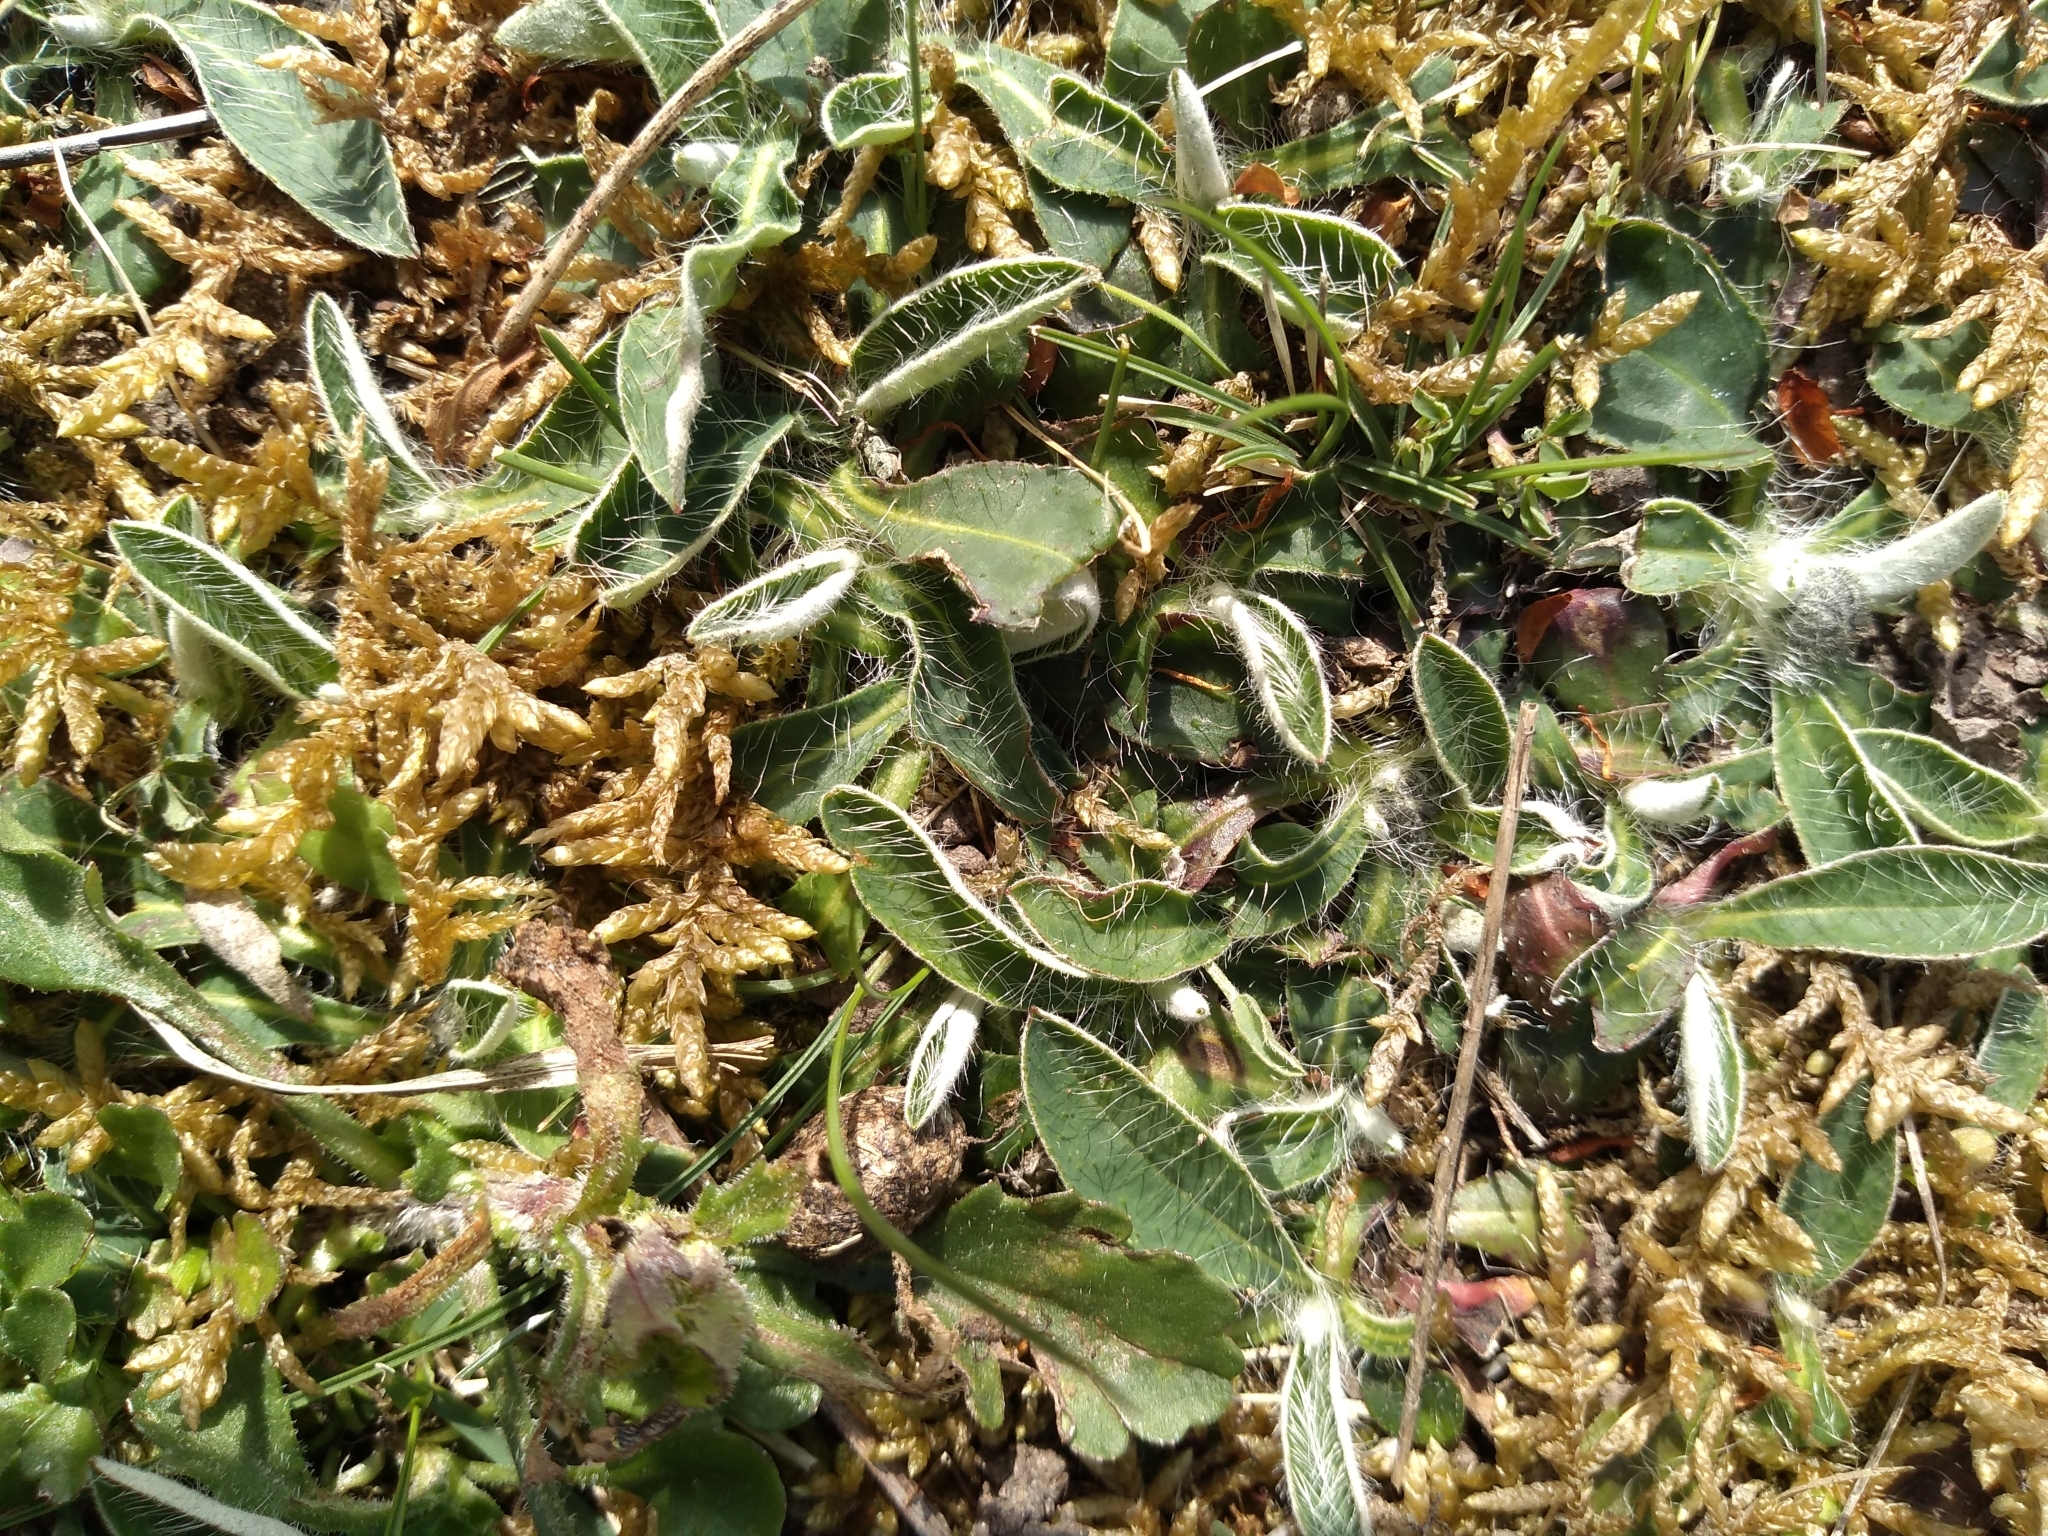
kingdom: Plantae
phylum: Tracheophyta
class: Magnoliopsida
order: Asterales
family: Asteraceae
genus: Pilosella
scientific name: Pilosella officinarum
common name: Mouse-ear hawkweed
